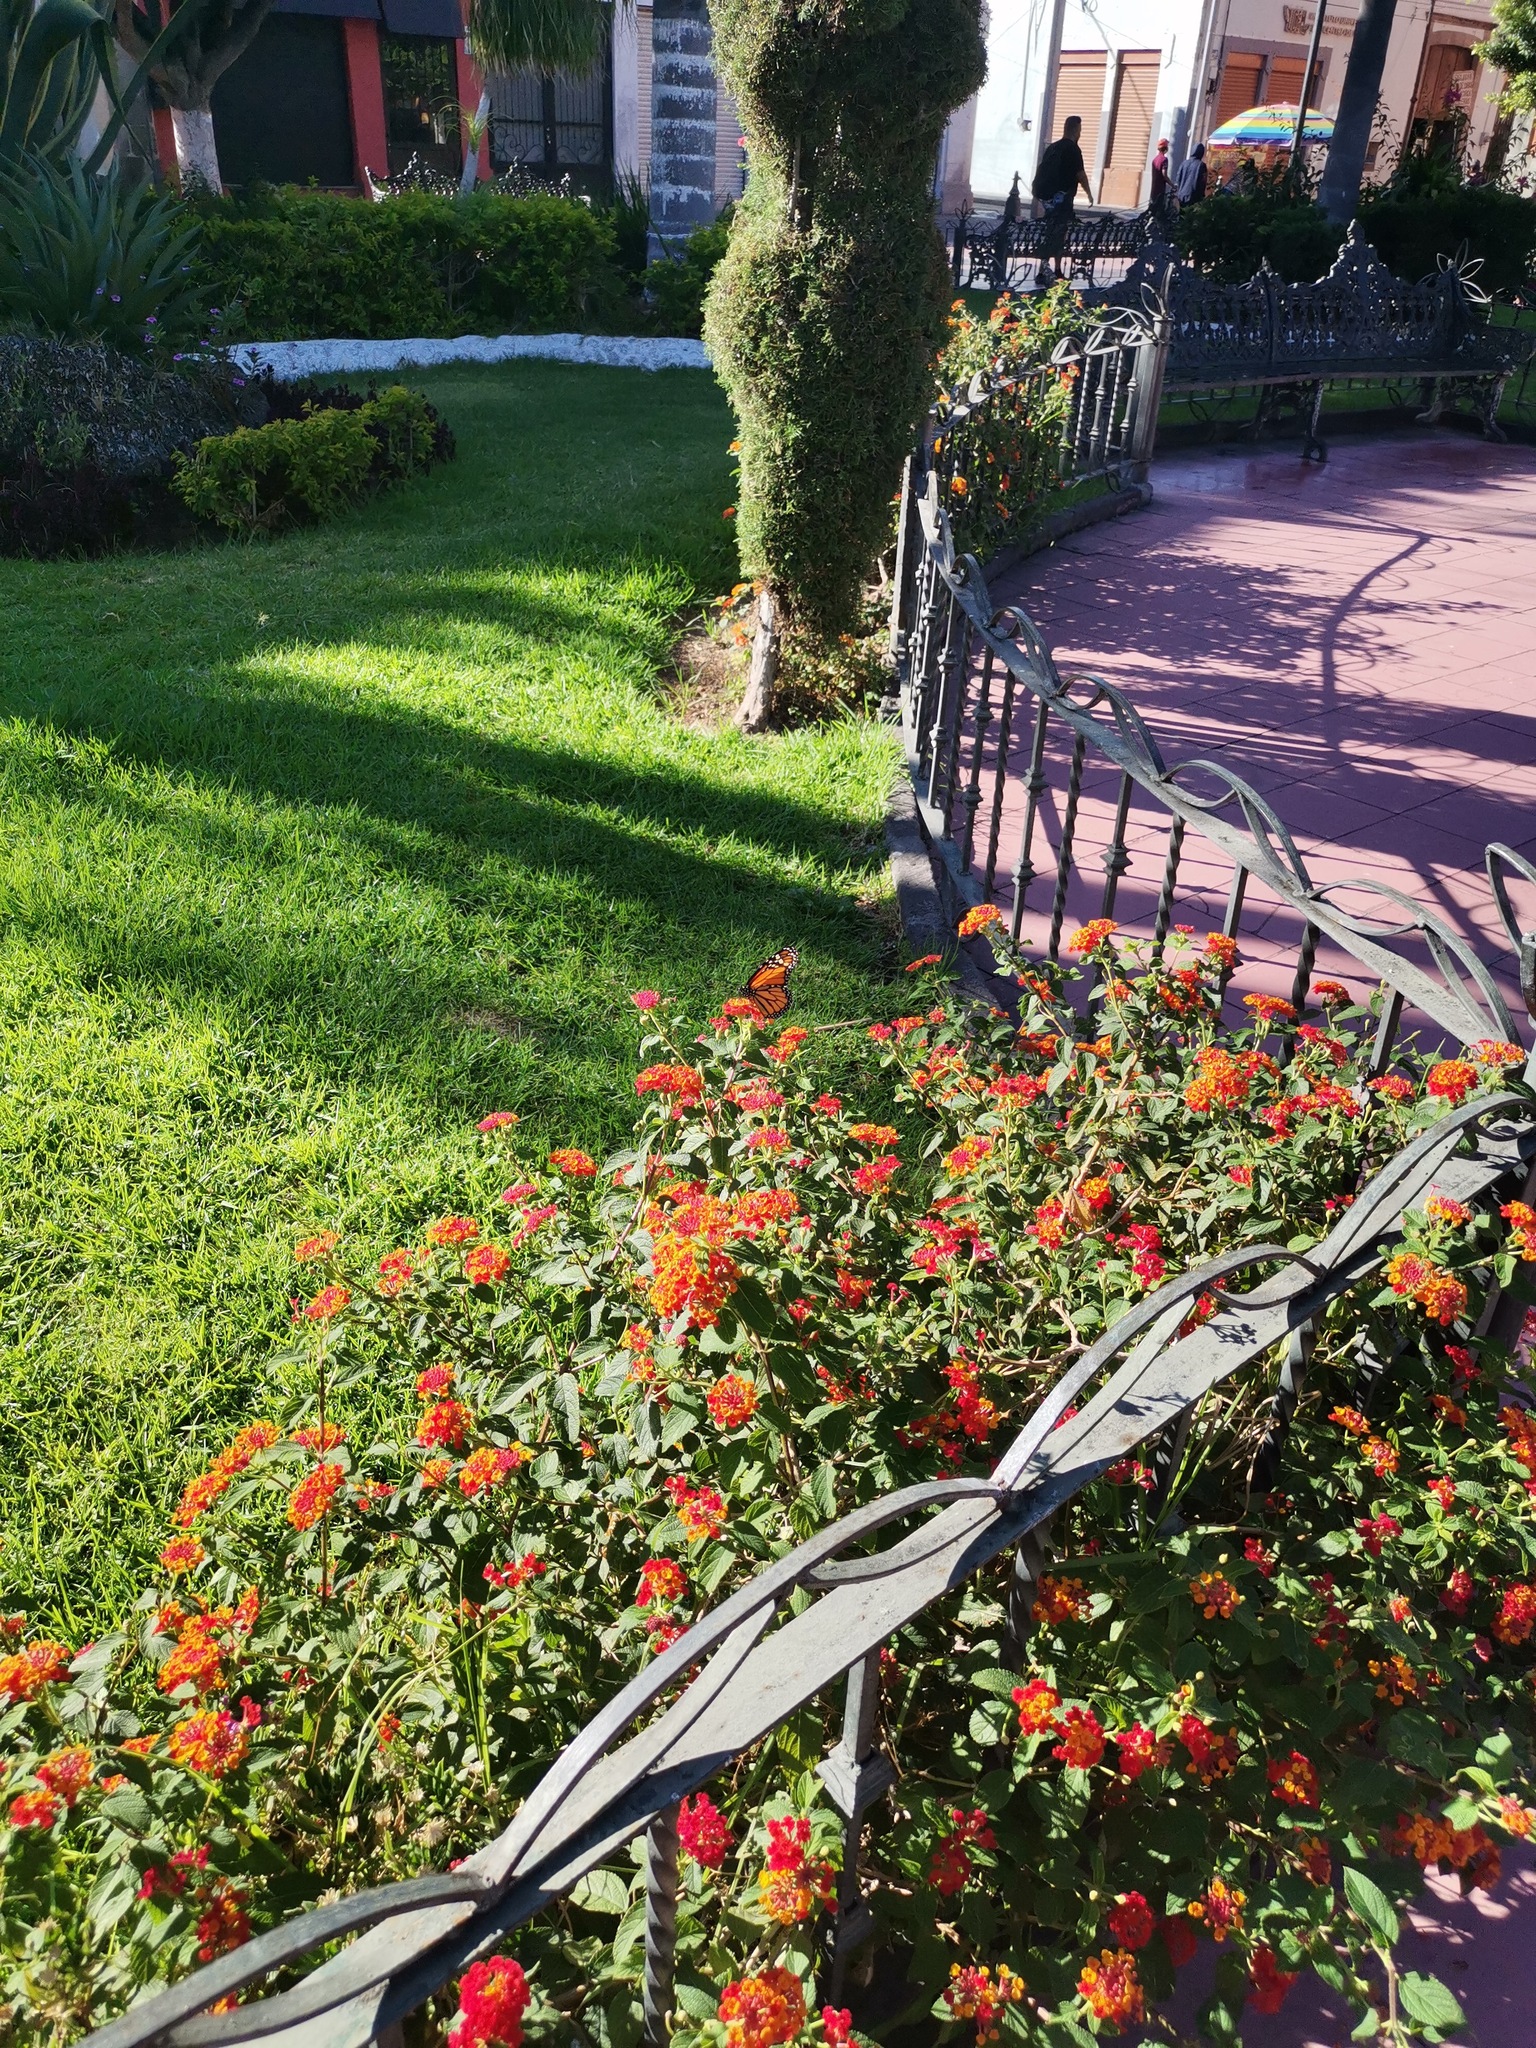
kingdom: Animalia
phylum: Arthropoda
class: Insecta
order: Lepidoptera
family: Nymphalidae
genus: Danaus
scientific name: Danaus plexippus
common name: Monarch
